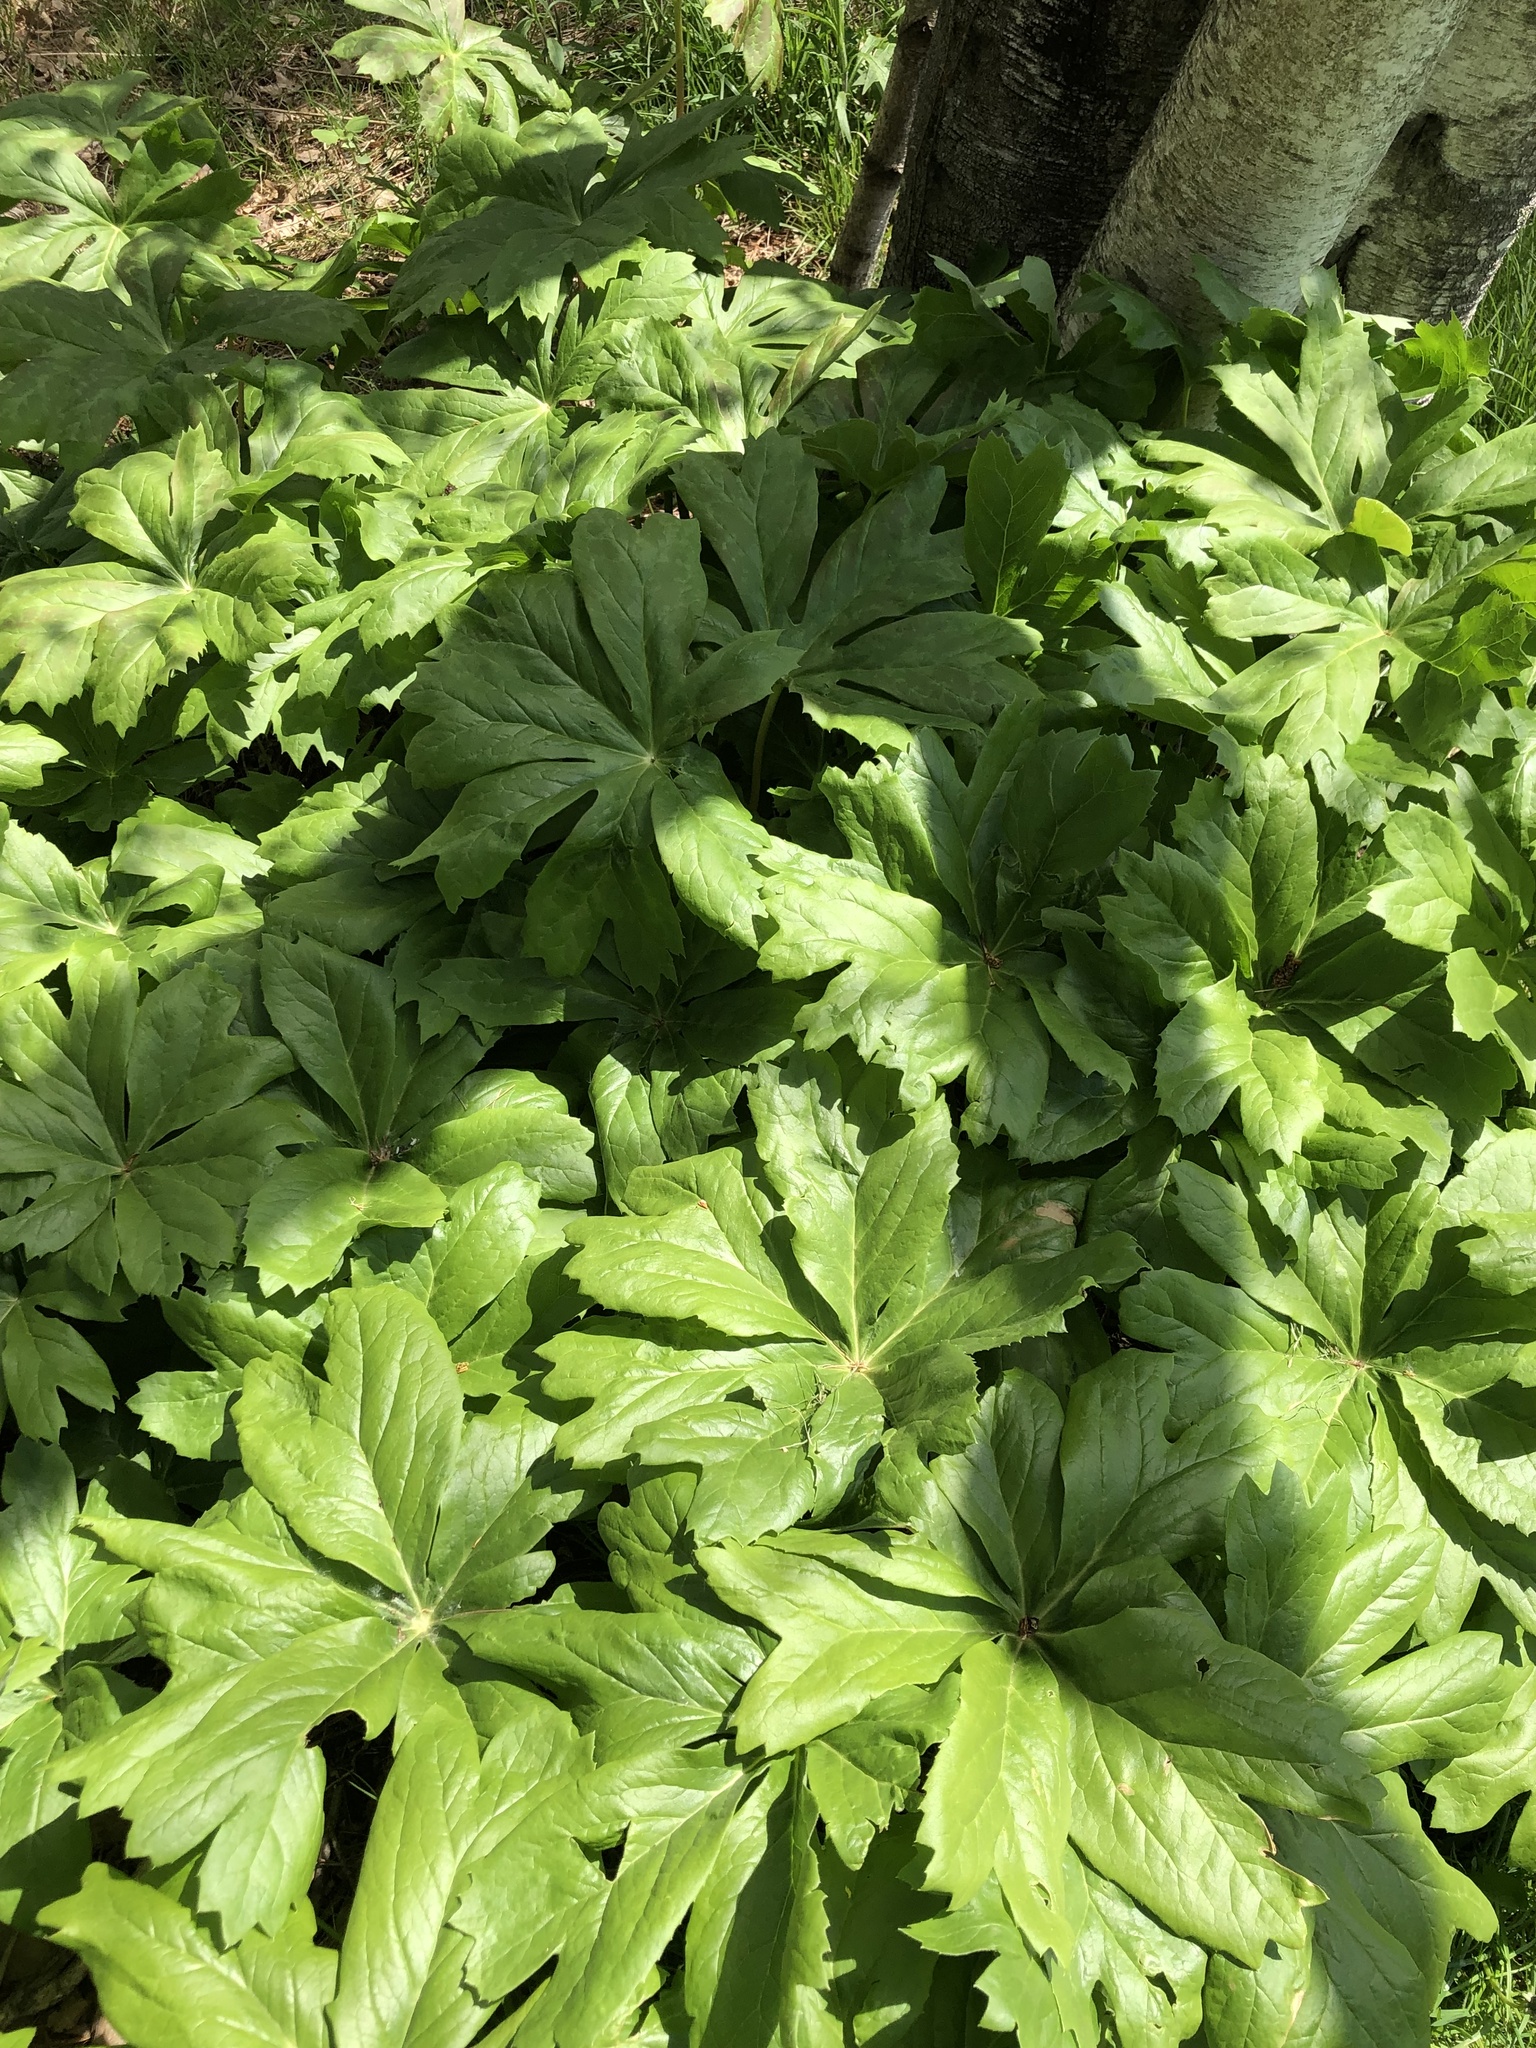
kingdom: Plantae
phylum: Tracheophyta
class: Magnoliopsida
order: Ranunculales
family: Berberidaceae
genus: Podophyllum
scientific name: Podophyllum peltatum
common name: Wild mandrake
